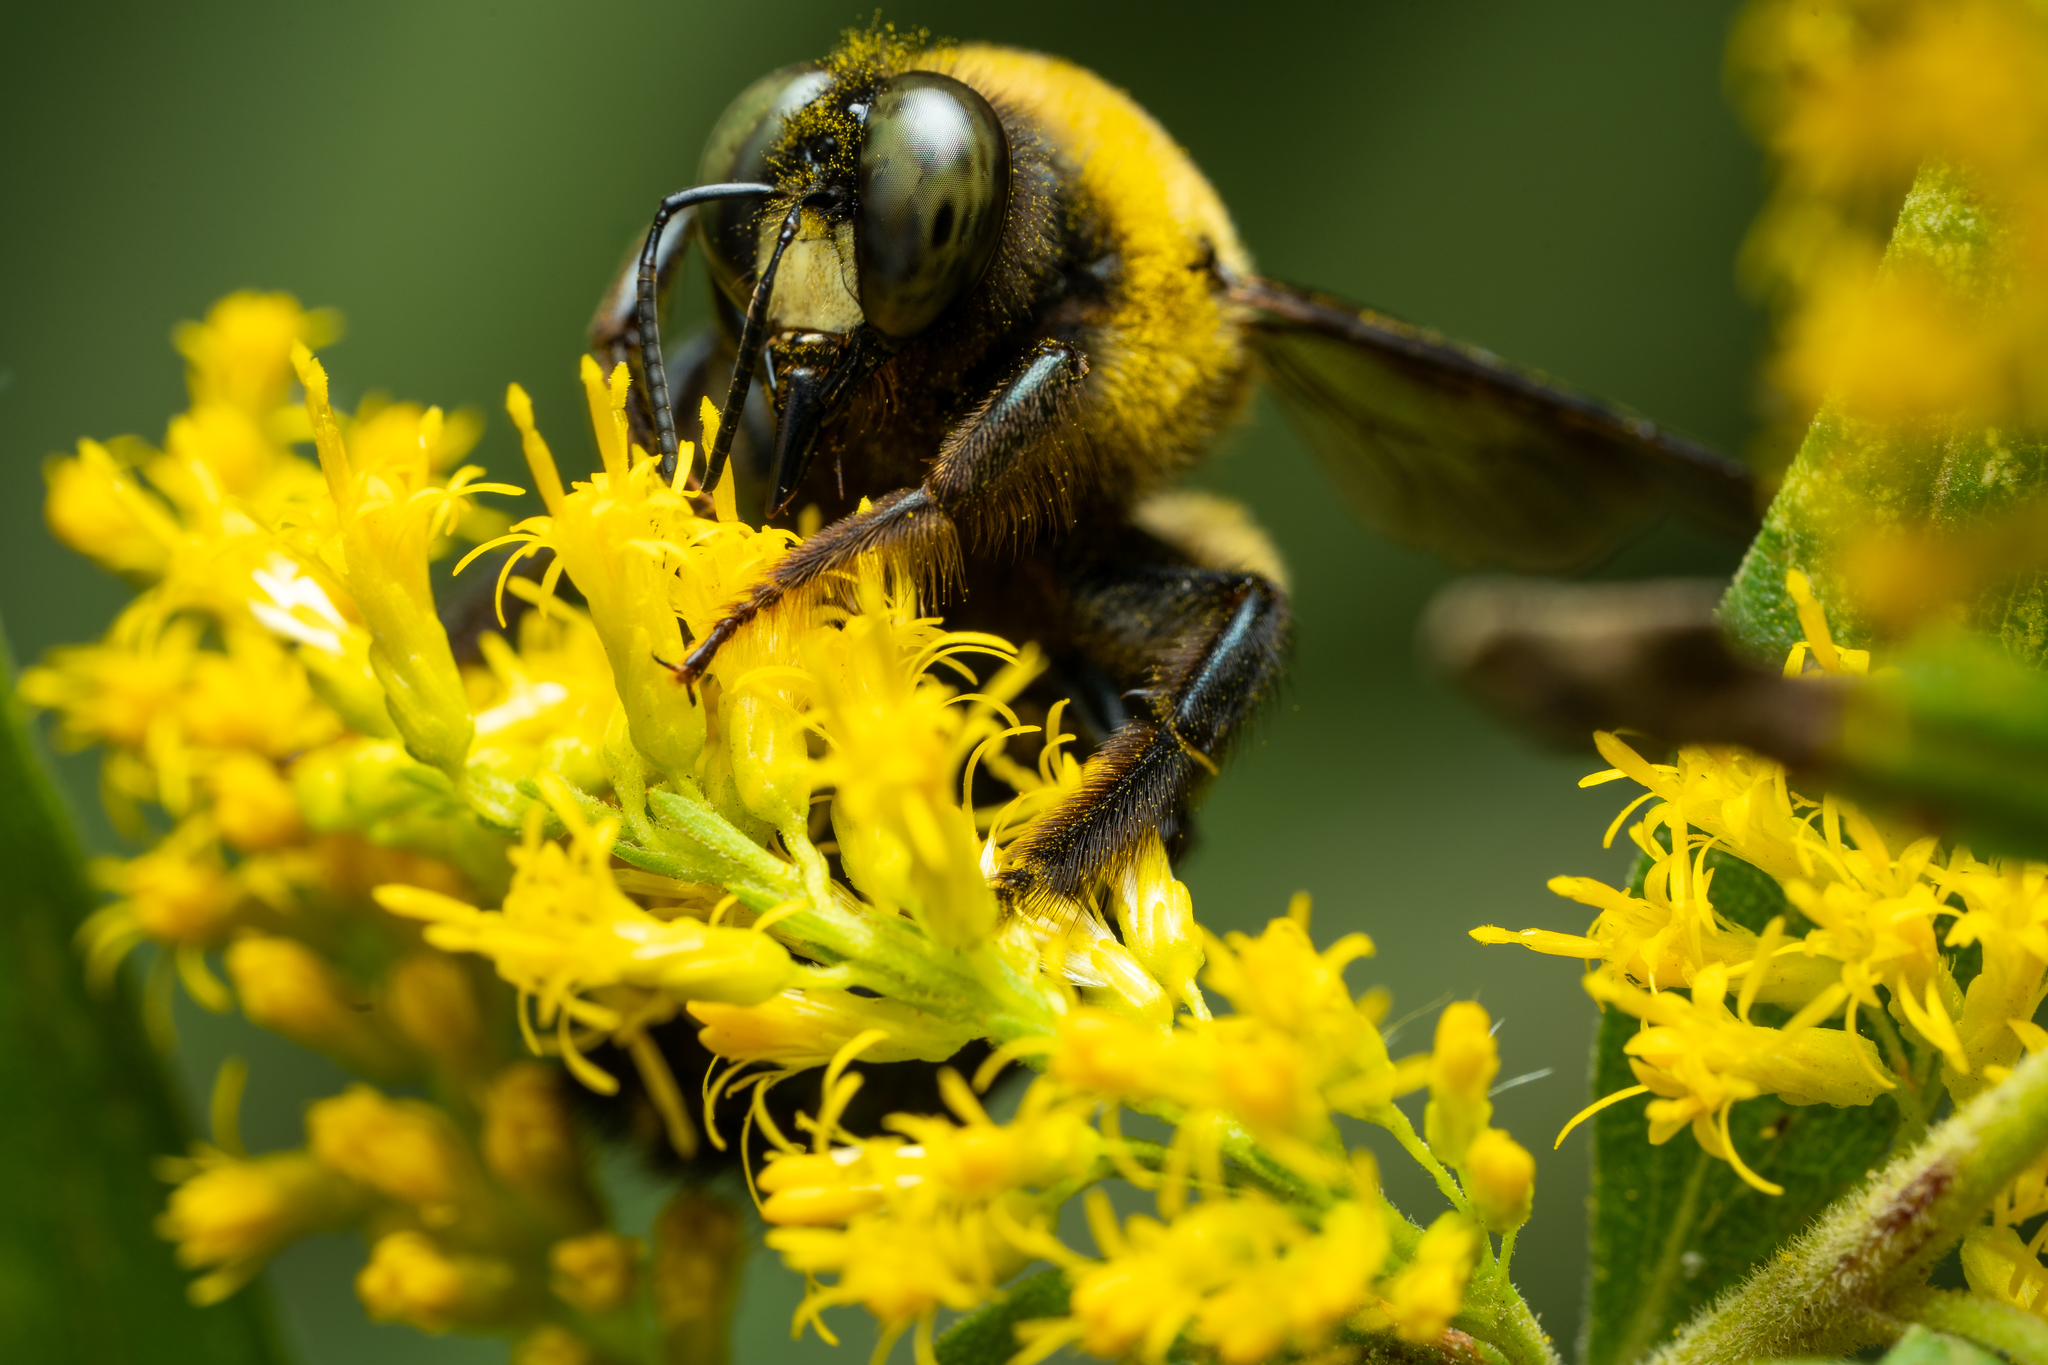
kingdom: Animalia
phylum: Arthropoda
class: Insecta
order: Hymenoptera
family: Apidae
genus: Xylocopa
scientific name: Xylocopa virginica
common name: Carpenter bee
